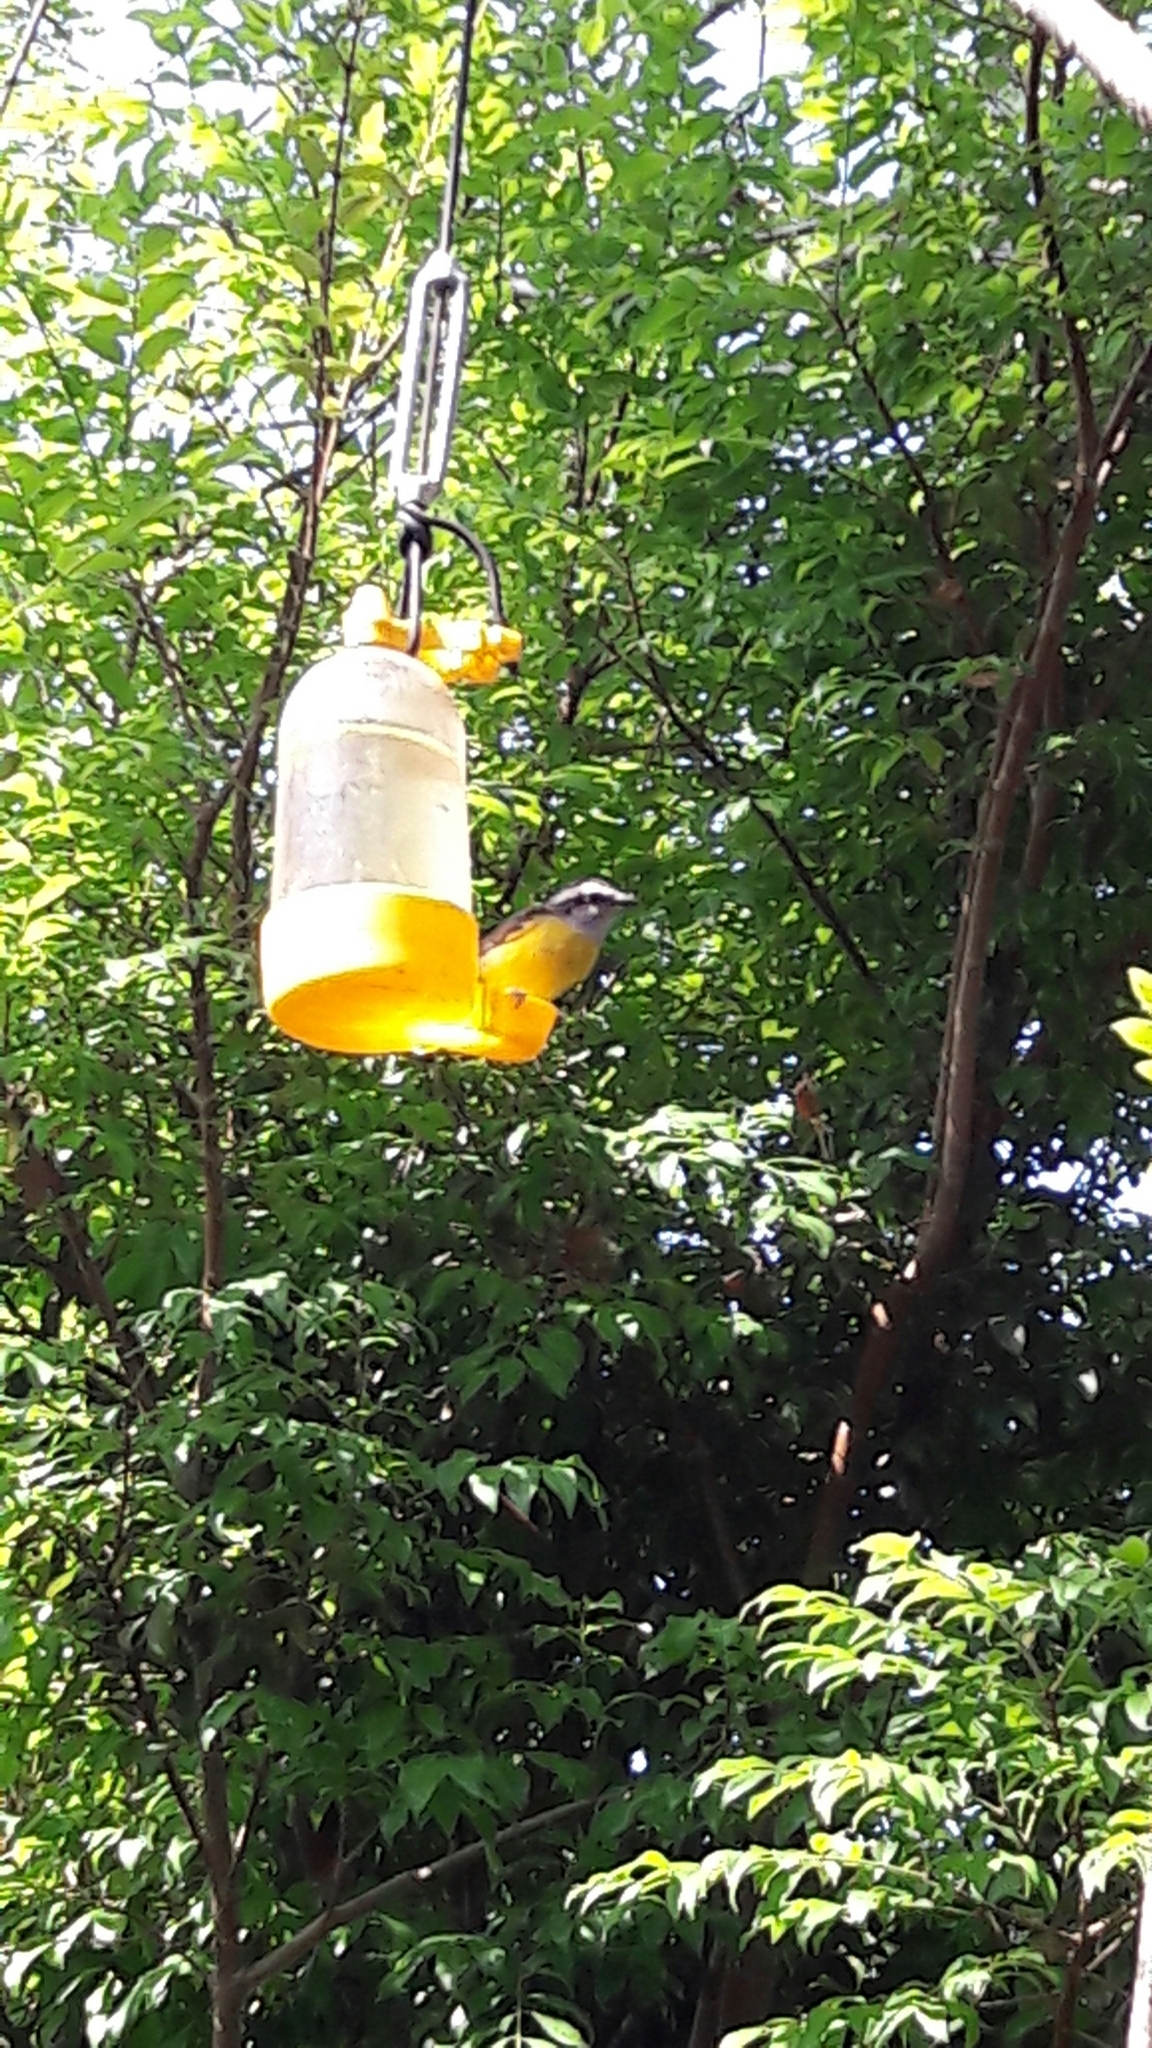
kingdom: Animalia
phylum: Chordata
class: Aves
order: Passeriformes
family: Thraupidae
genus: Coereba
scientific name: Coereba flaveola
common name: Bananaquit
